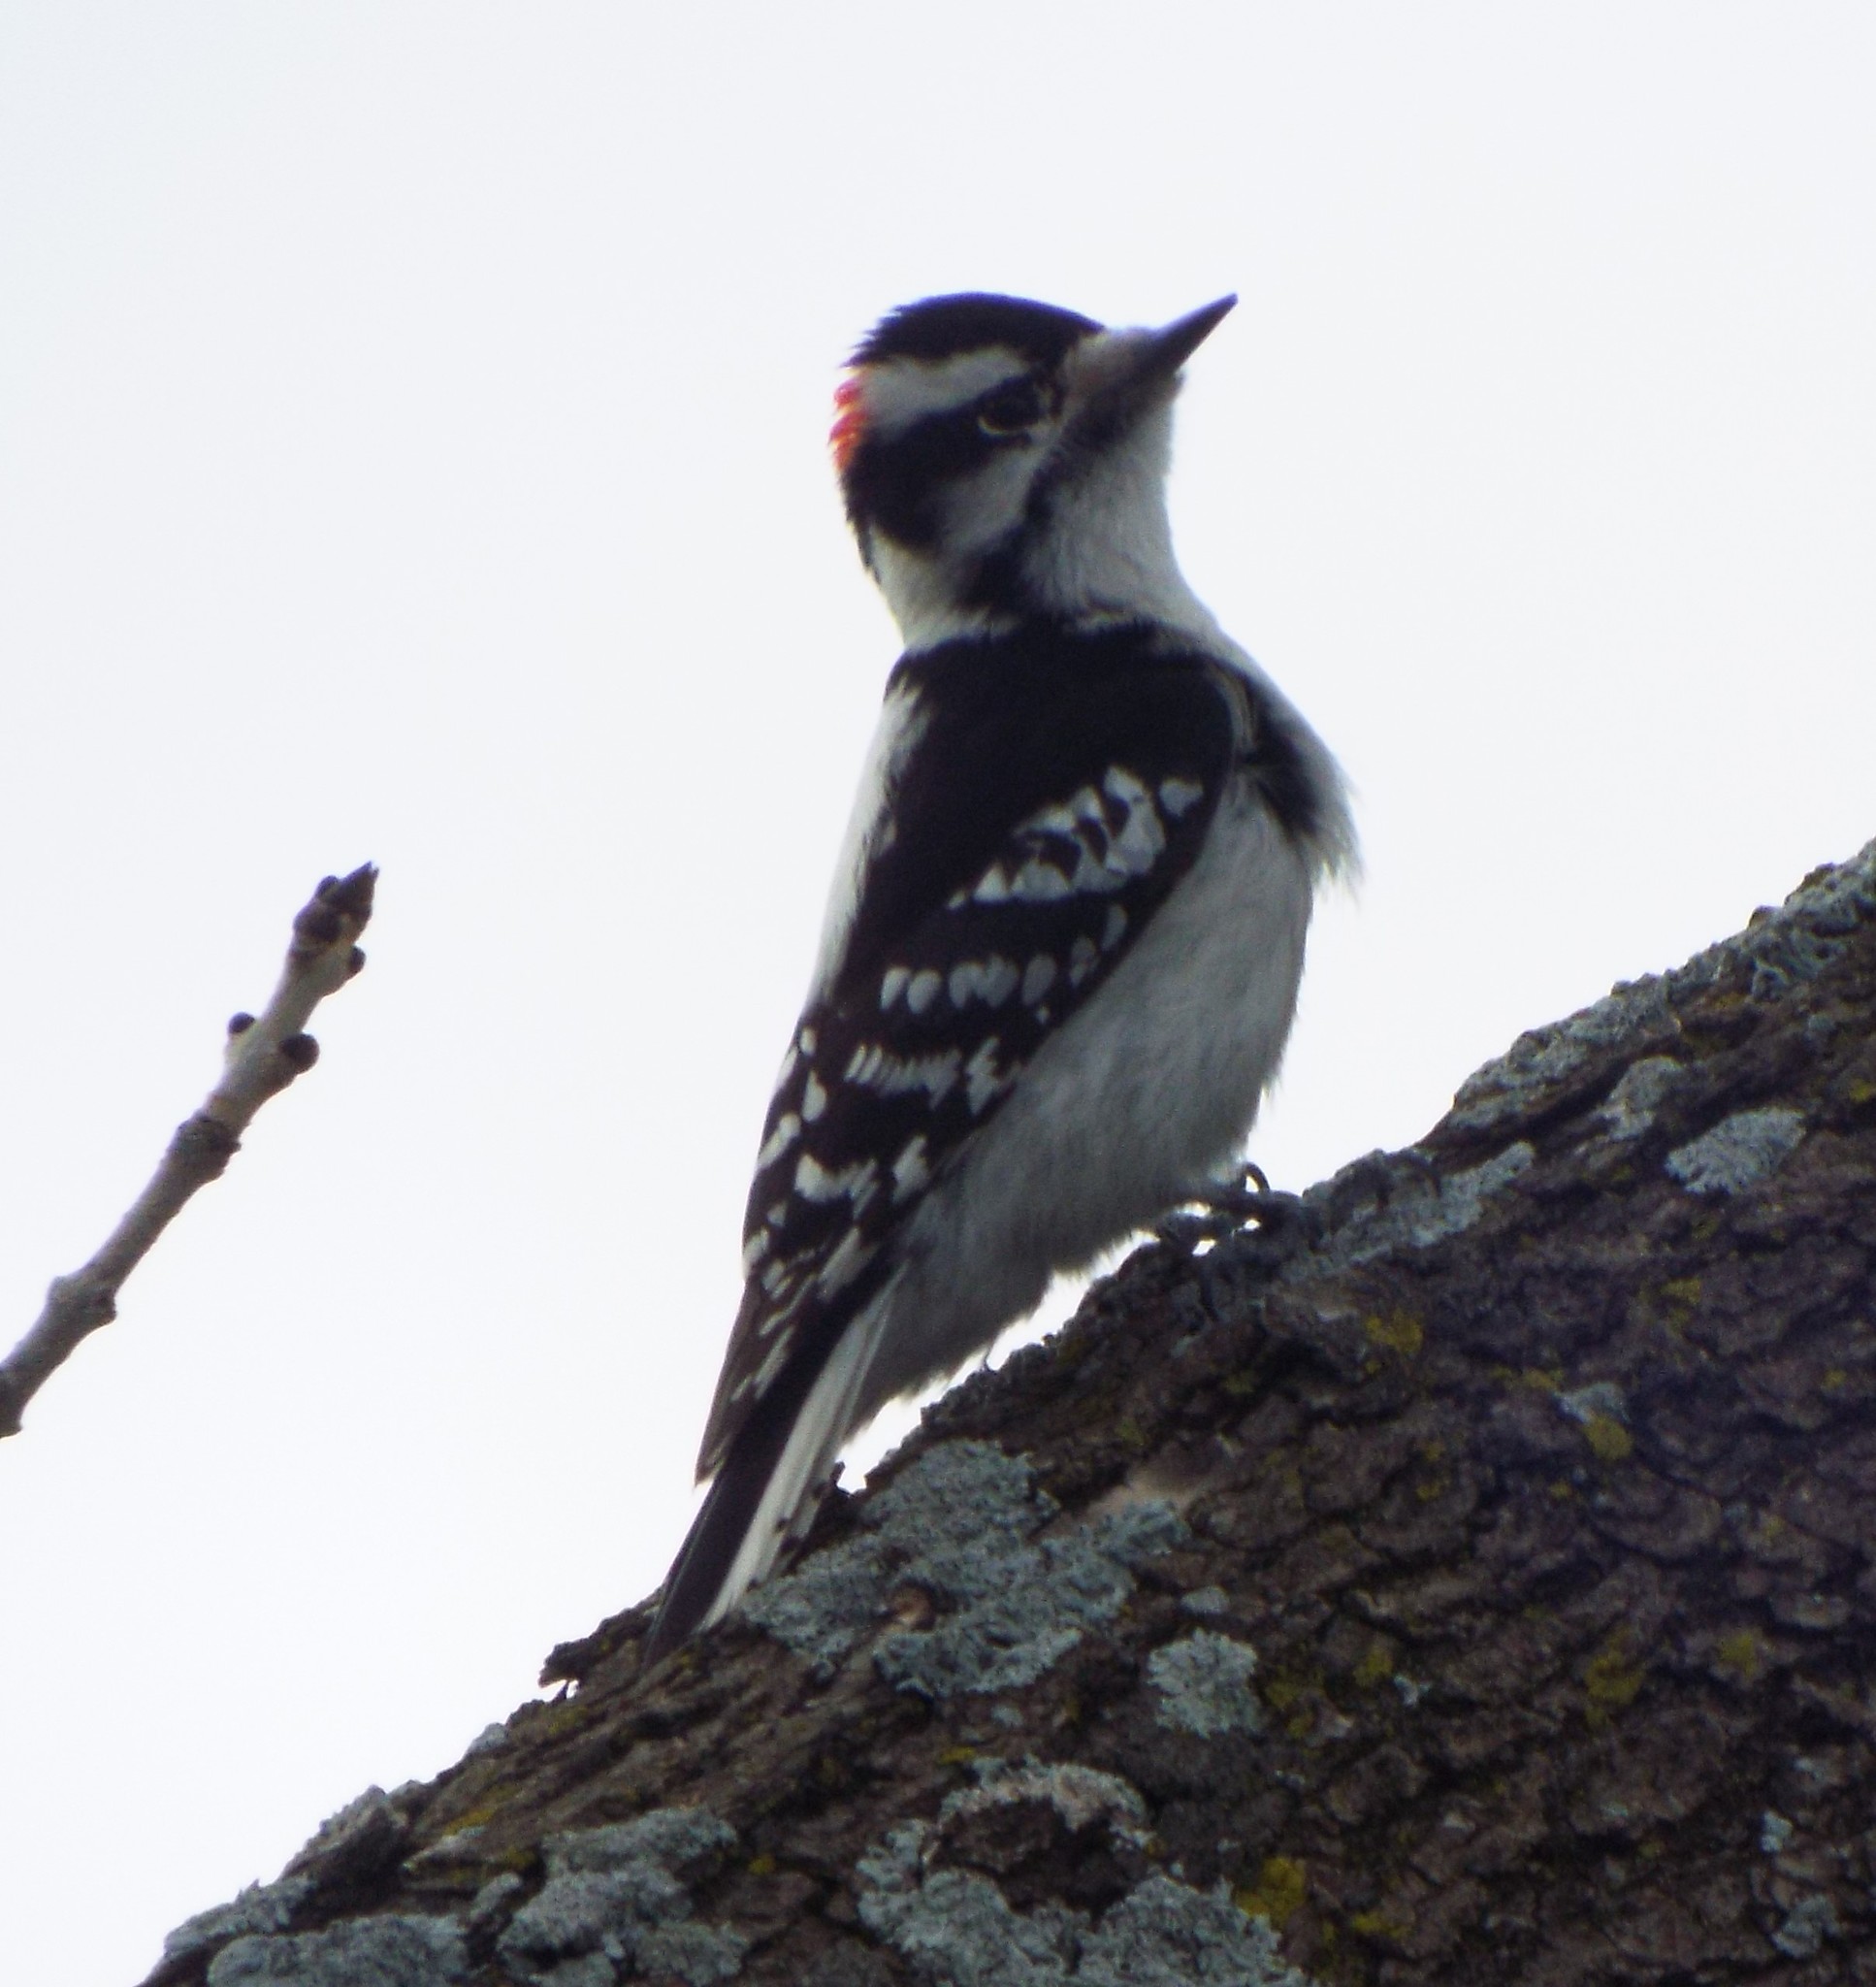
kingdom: Animalia
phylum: Chordata
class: Aves
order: Piciformes
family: Picidae
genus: Dryobates
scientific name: Dryobates pubescens
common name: Downy woodpecker
